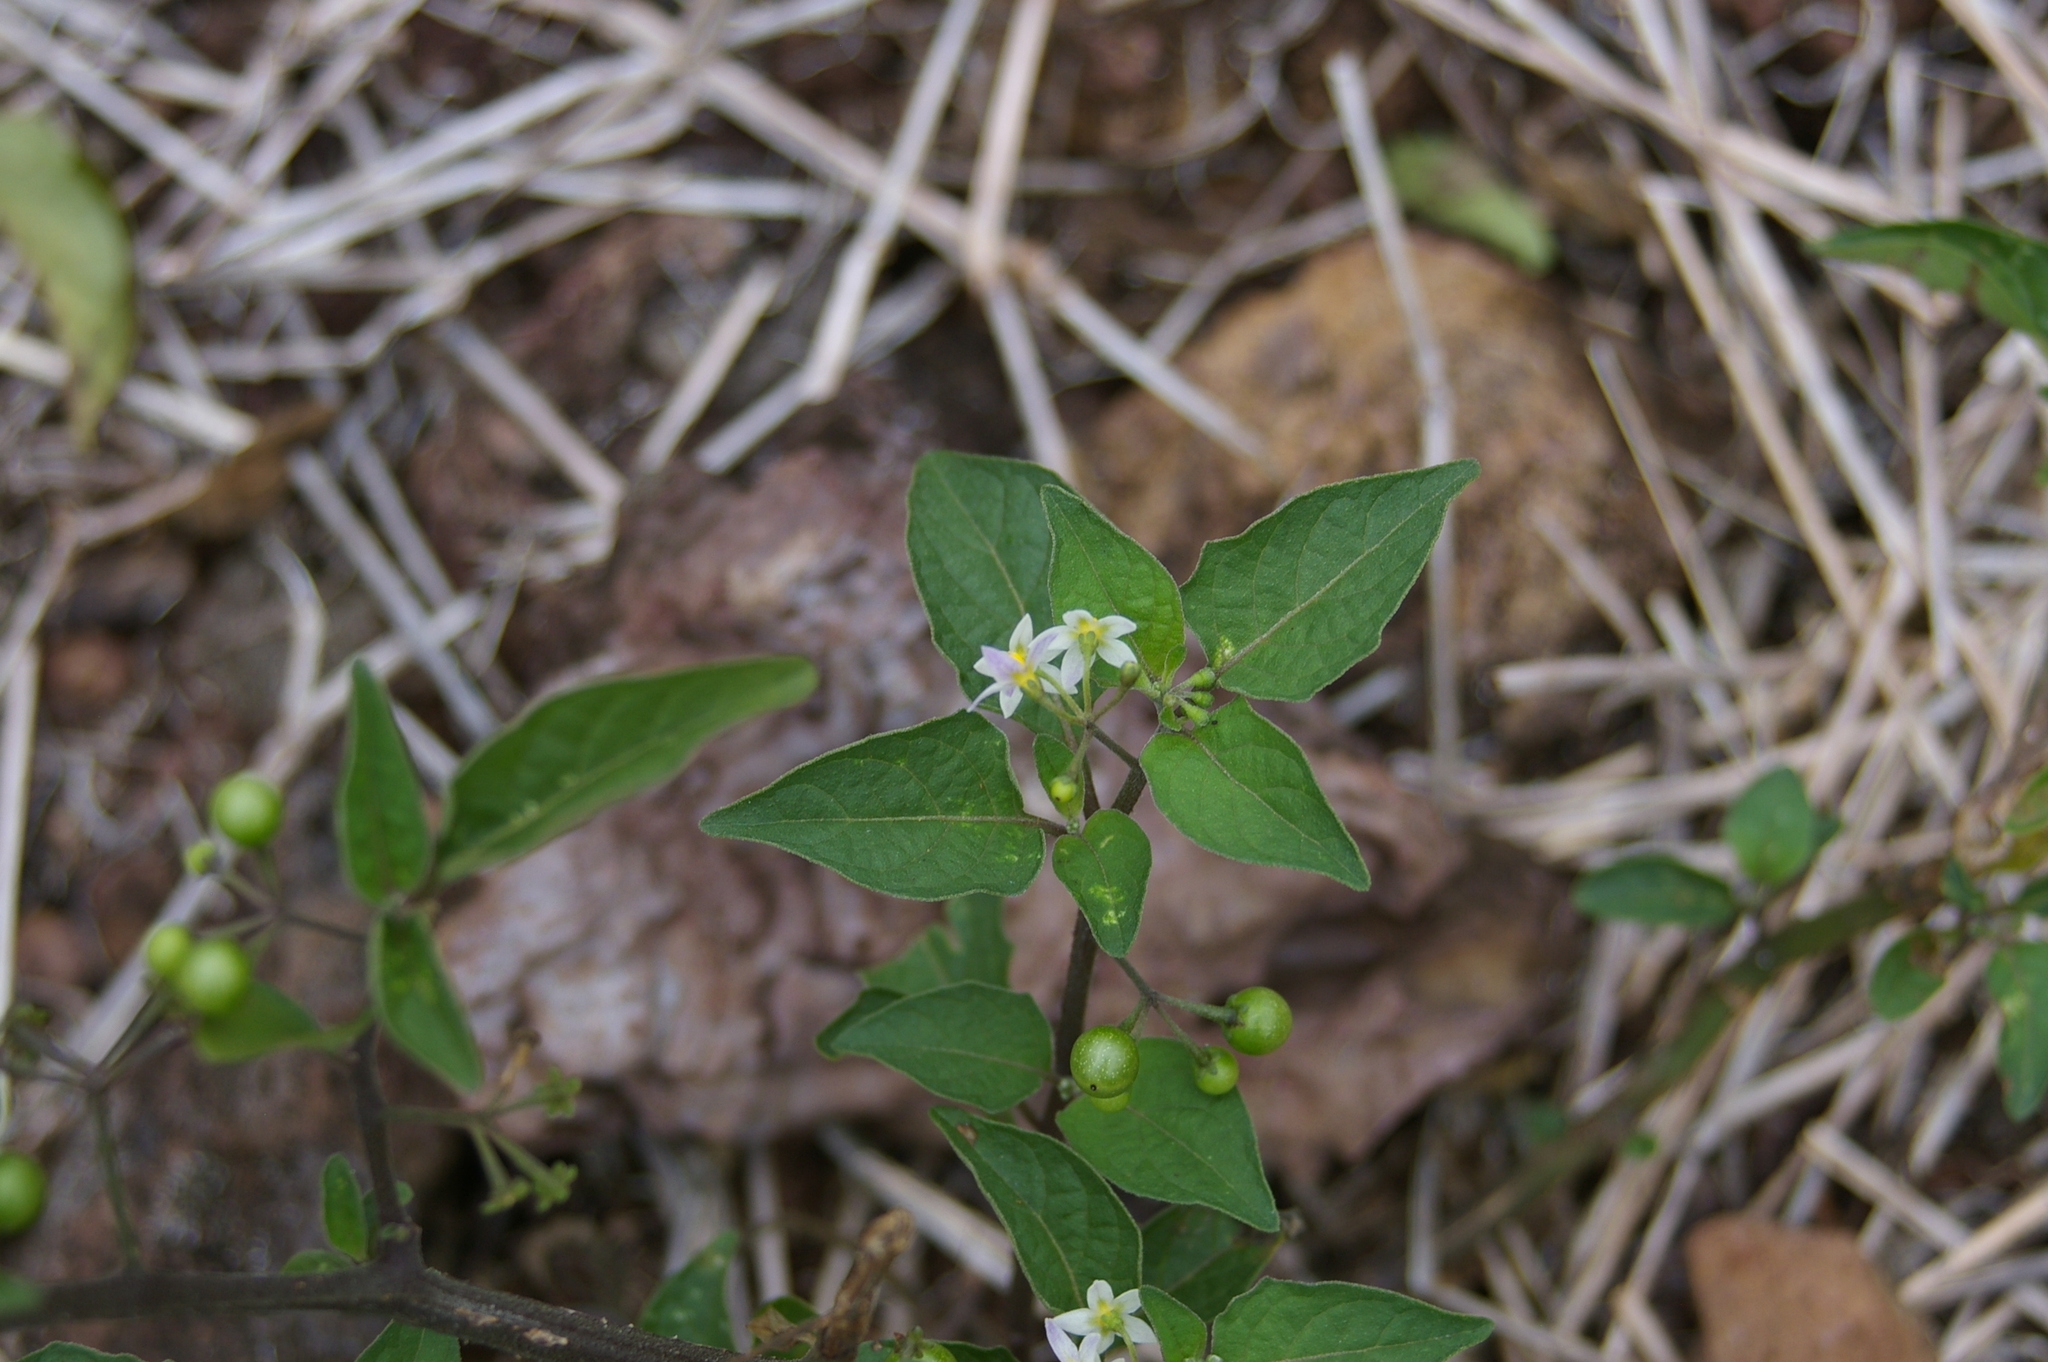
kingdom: Plantae
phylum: Tracheophyta
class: Magnoliopsida
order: Solanales
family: Solanaceae
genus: Solanum
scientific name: Solanum americanum
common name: American black nightshade
